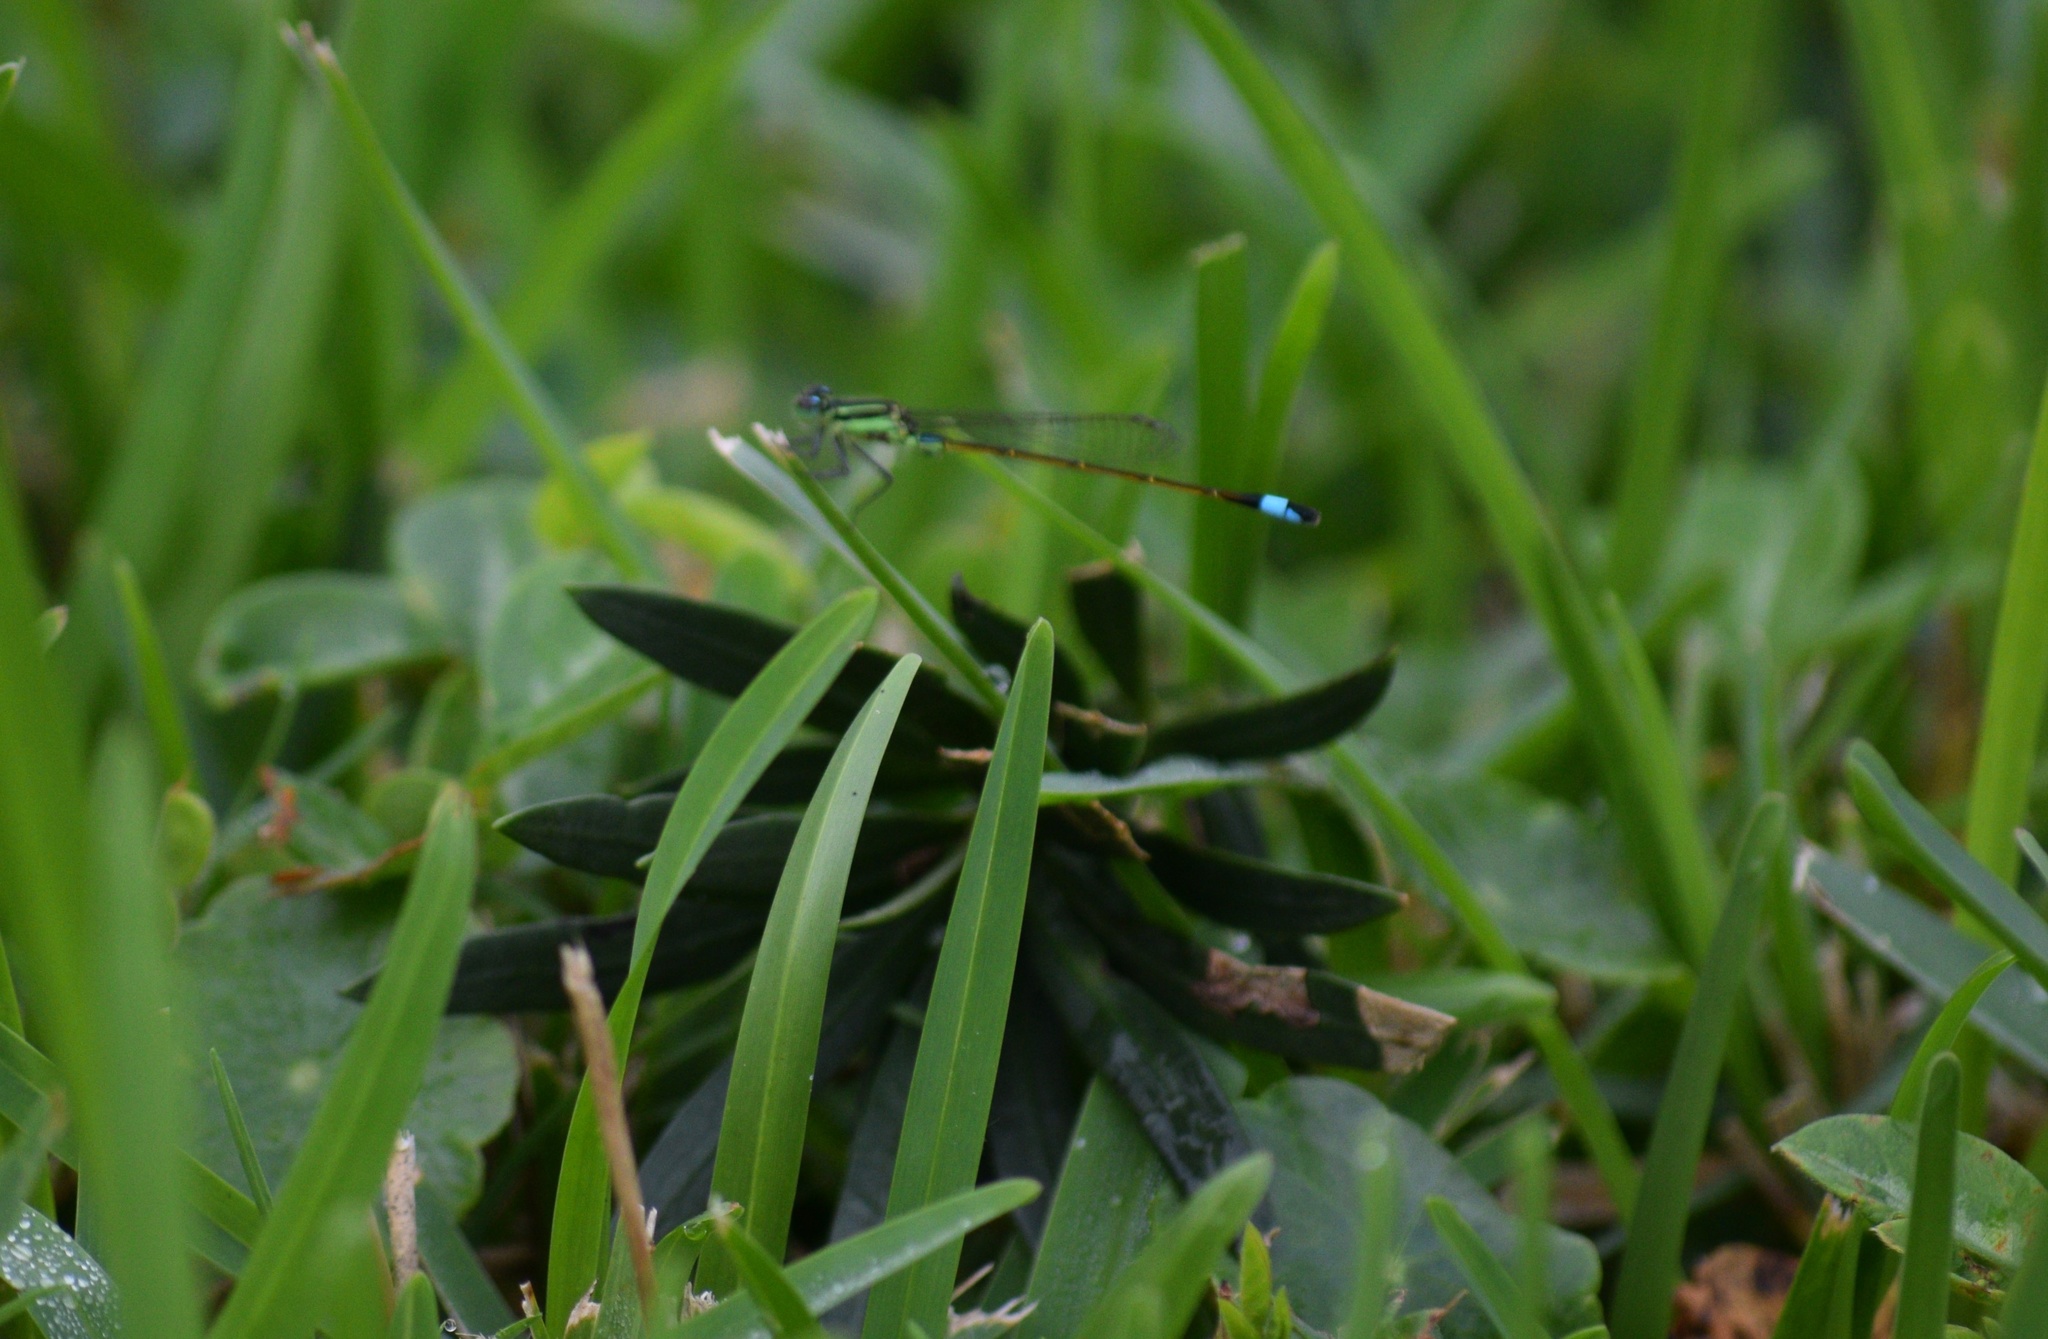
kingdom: Animalia
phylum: Arthropoda
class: Insecta
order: Odonata
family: Coenagrionidae
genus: Ischnura
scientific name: Ischnura ramburii
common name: Rambur's forktail
